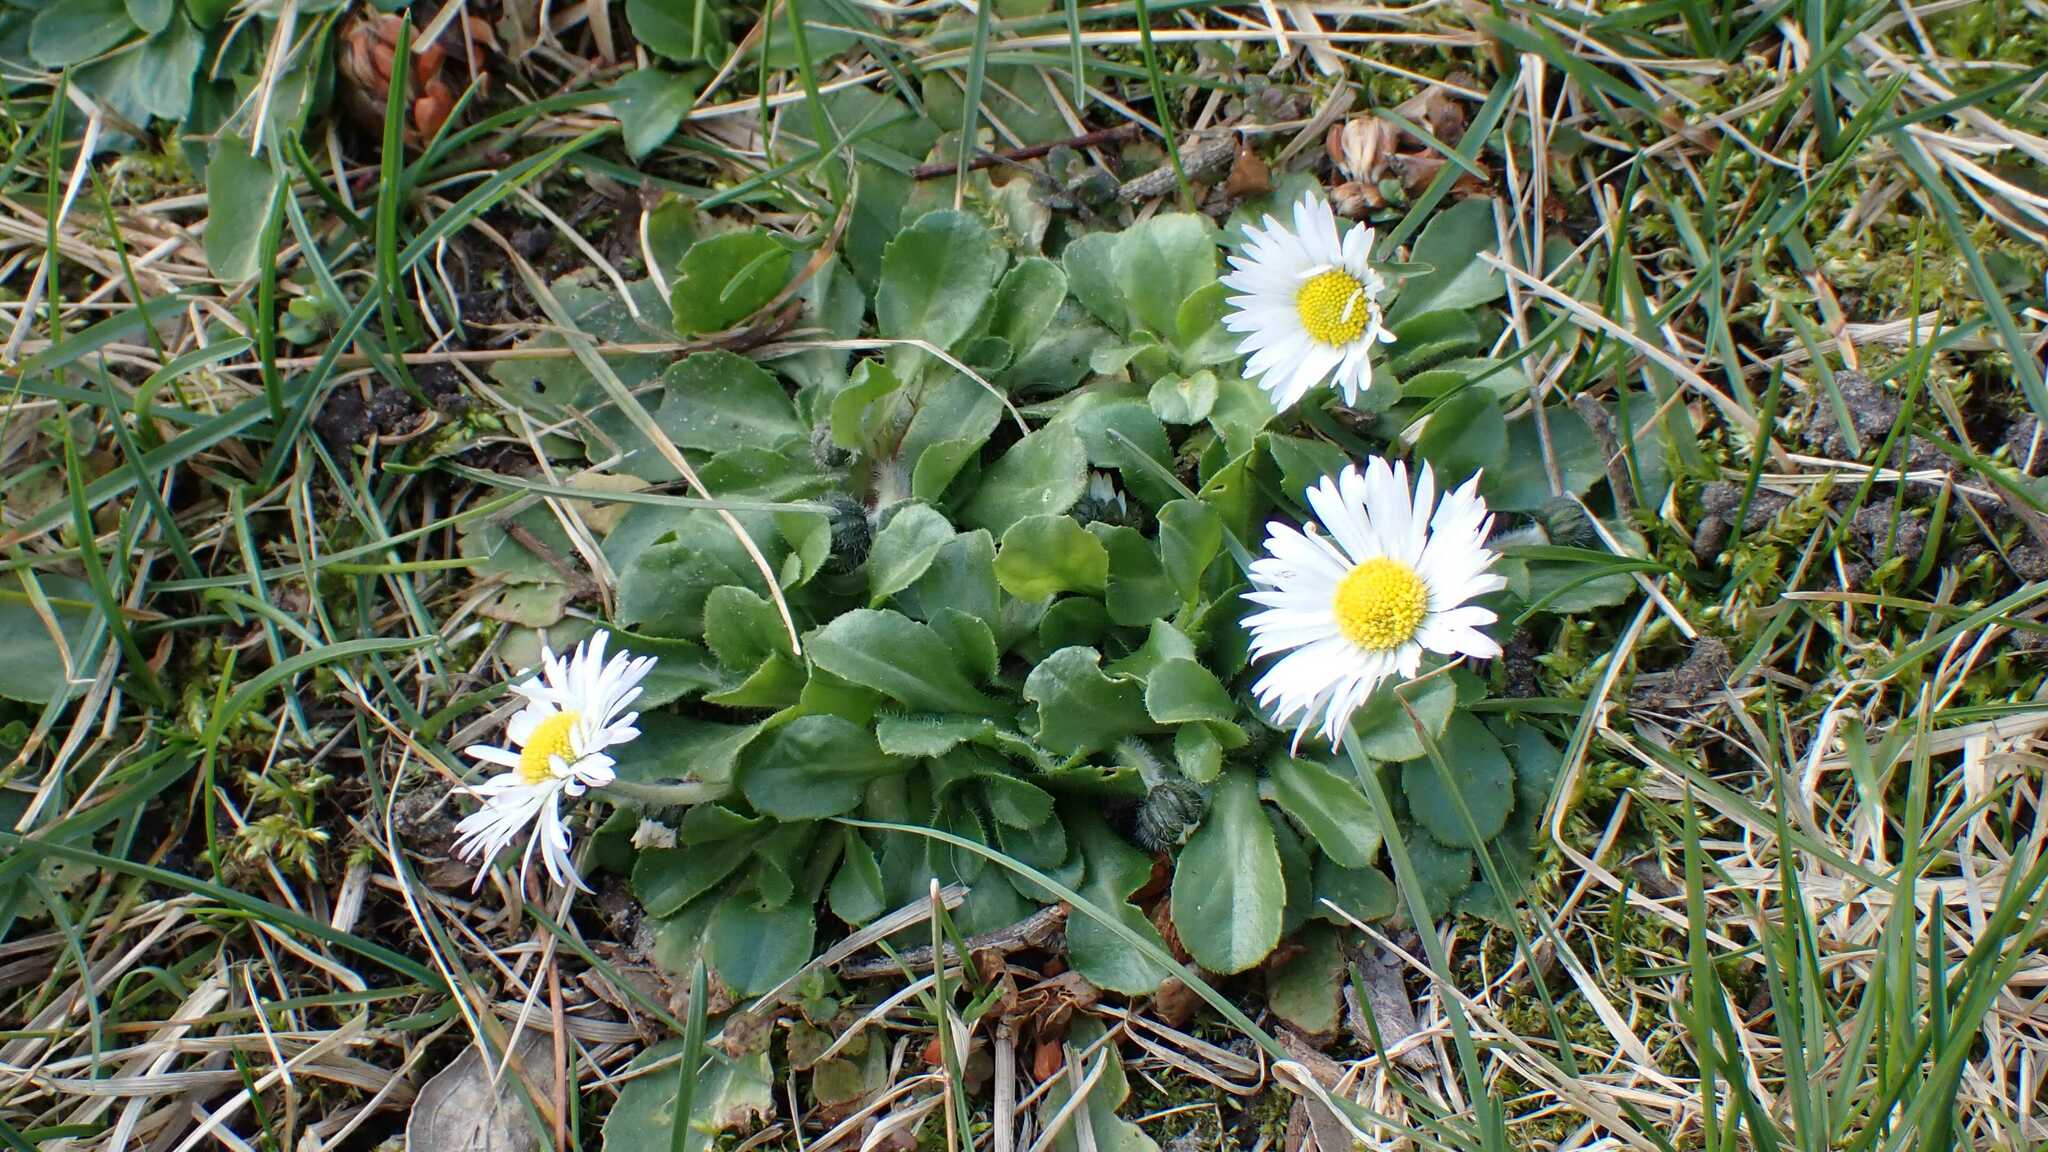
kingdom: Plantae
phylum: Tracheophyta
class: Magnoliopsida
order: Asterales
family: Asteraceae
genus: Bellis
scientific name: Bellis perennis
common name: Lawndaisy
